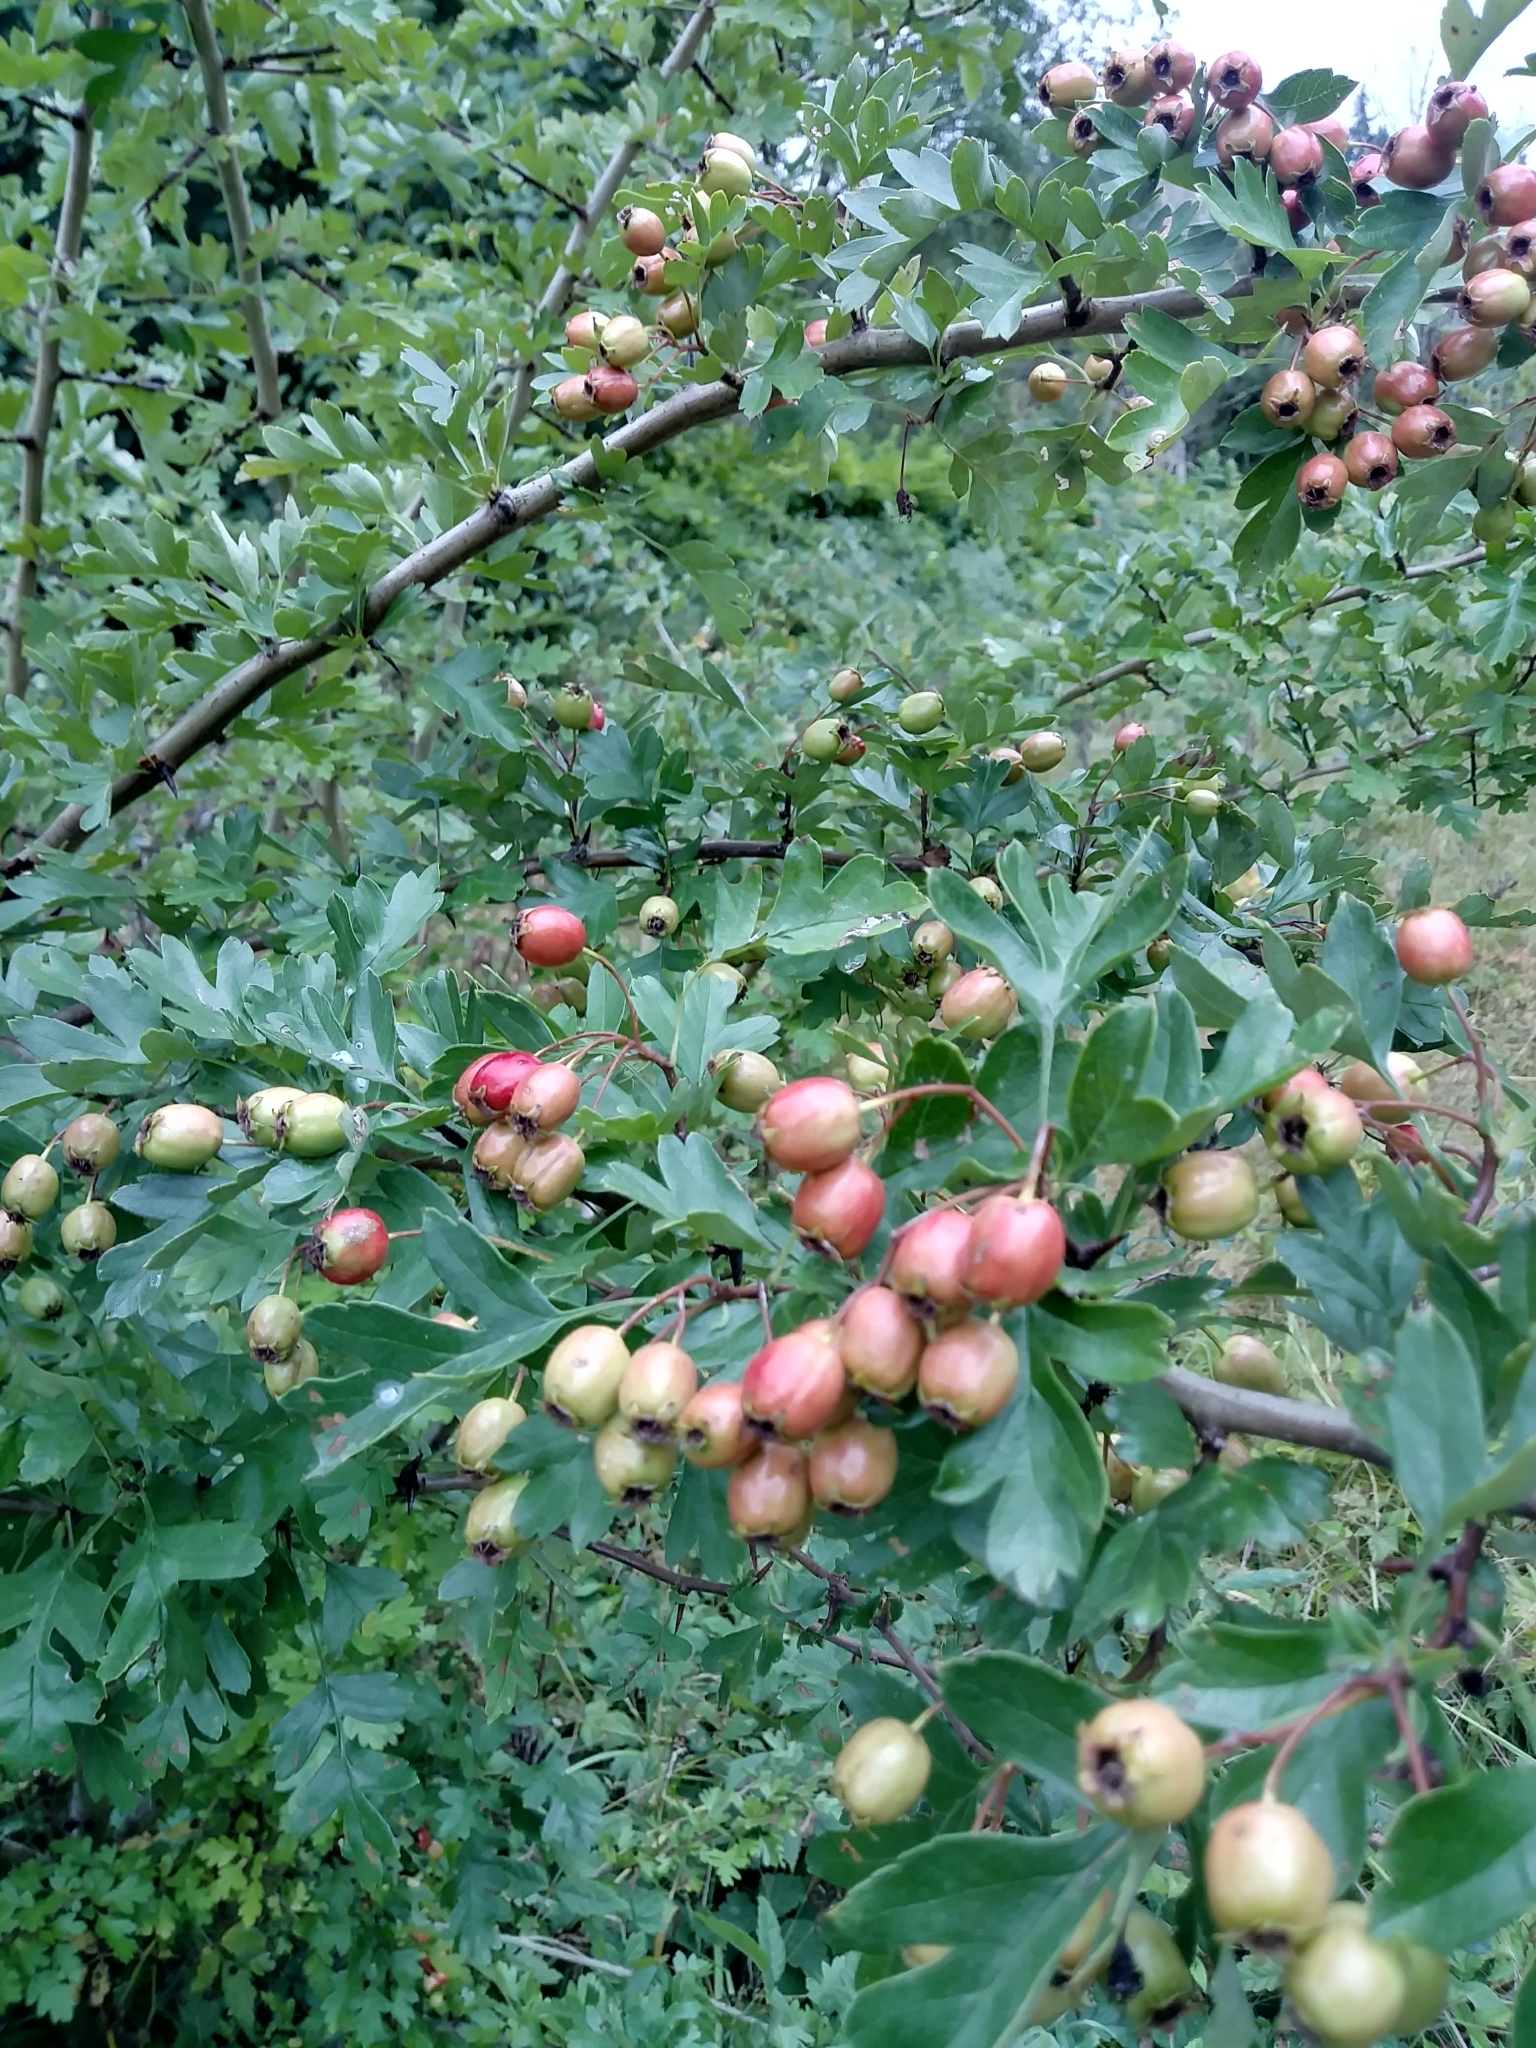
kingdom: Plantae
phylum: Tracheophyta
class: Magnoliopsida
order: Rosales
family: Rosaceae
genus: Crataegus
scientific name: Crataegus monogyna
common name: Hawthorn
